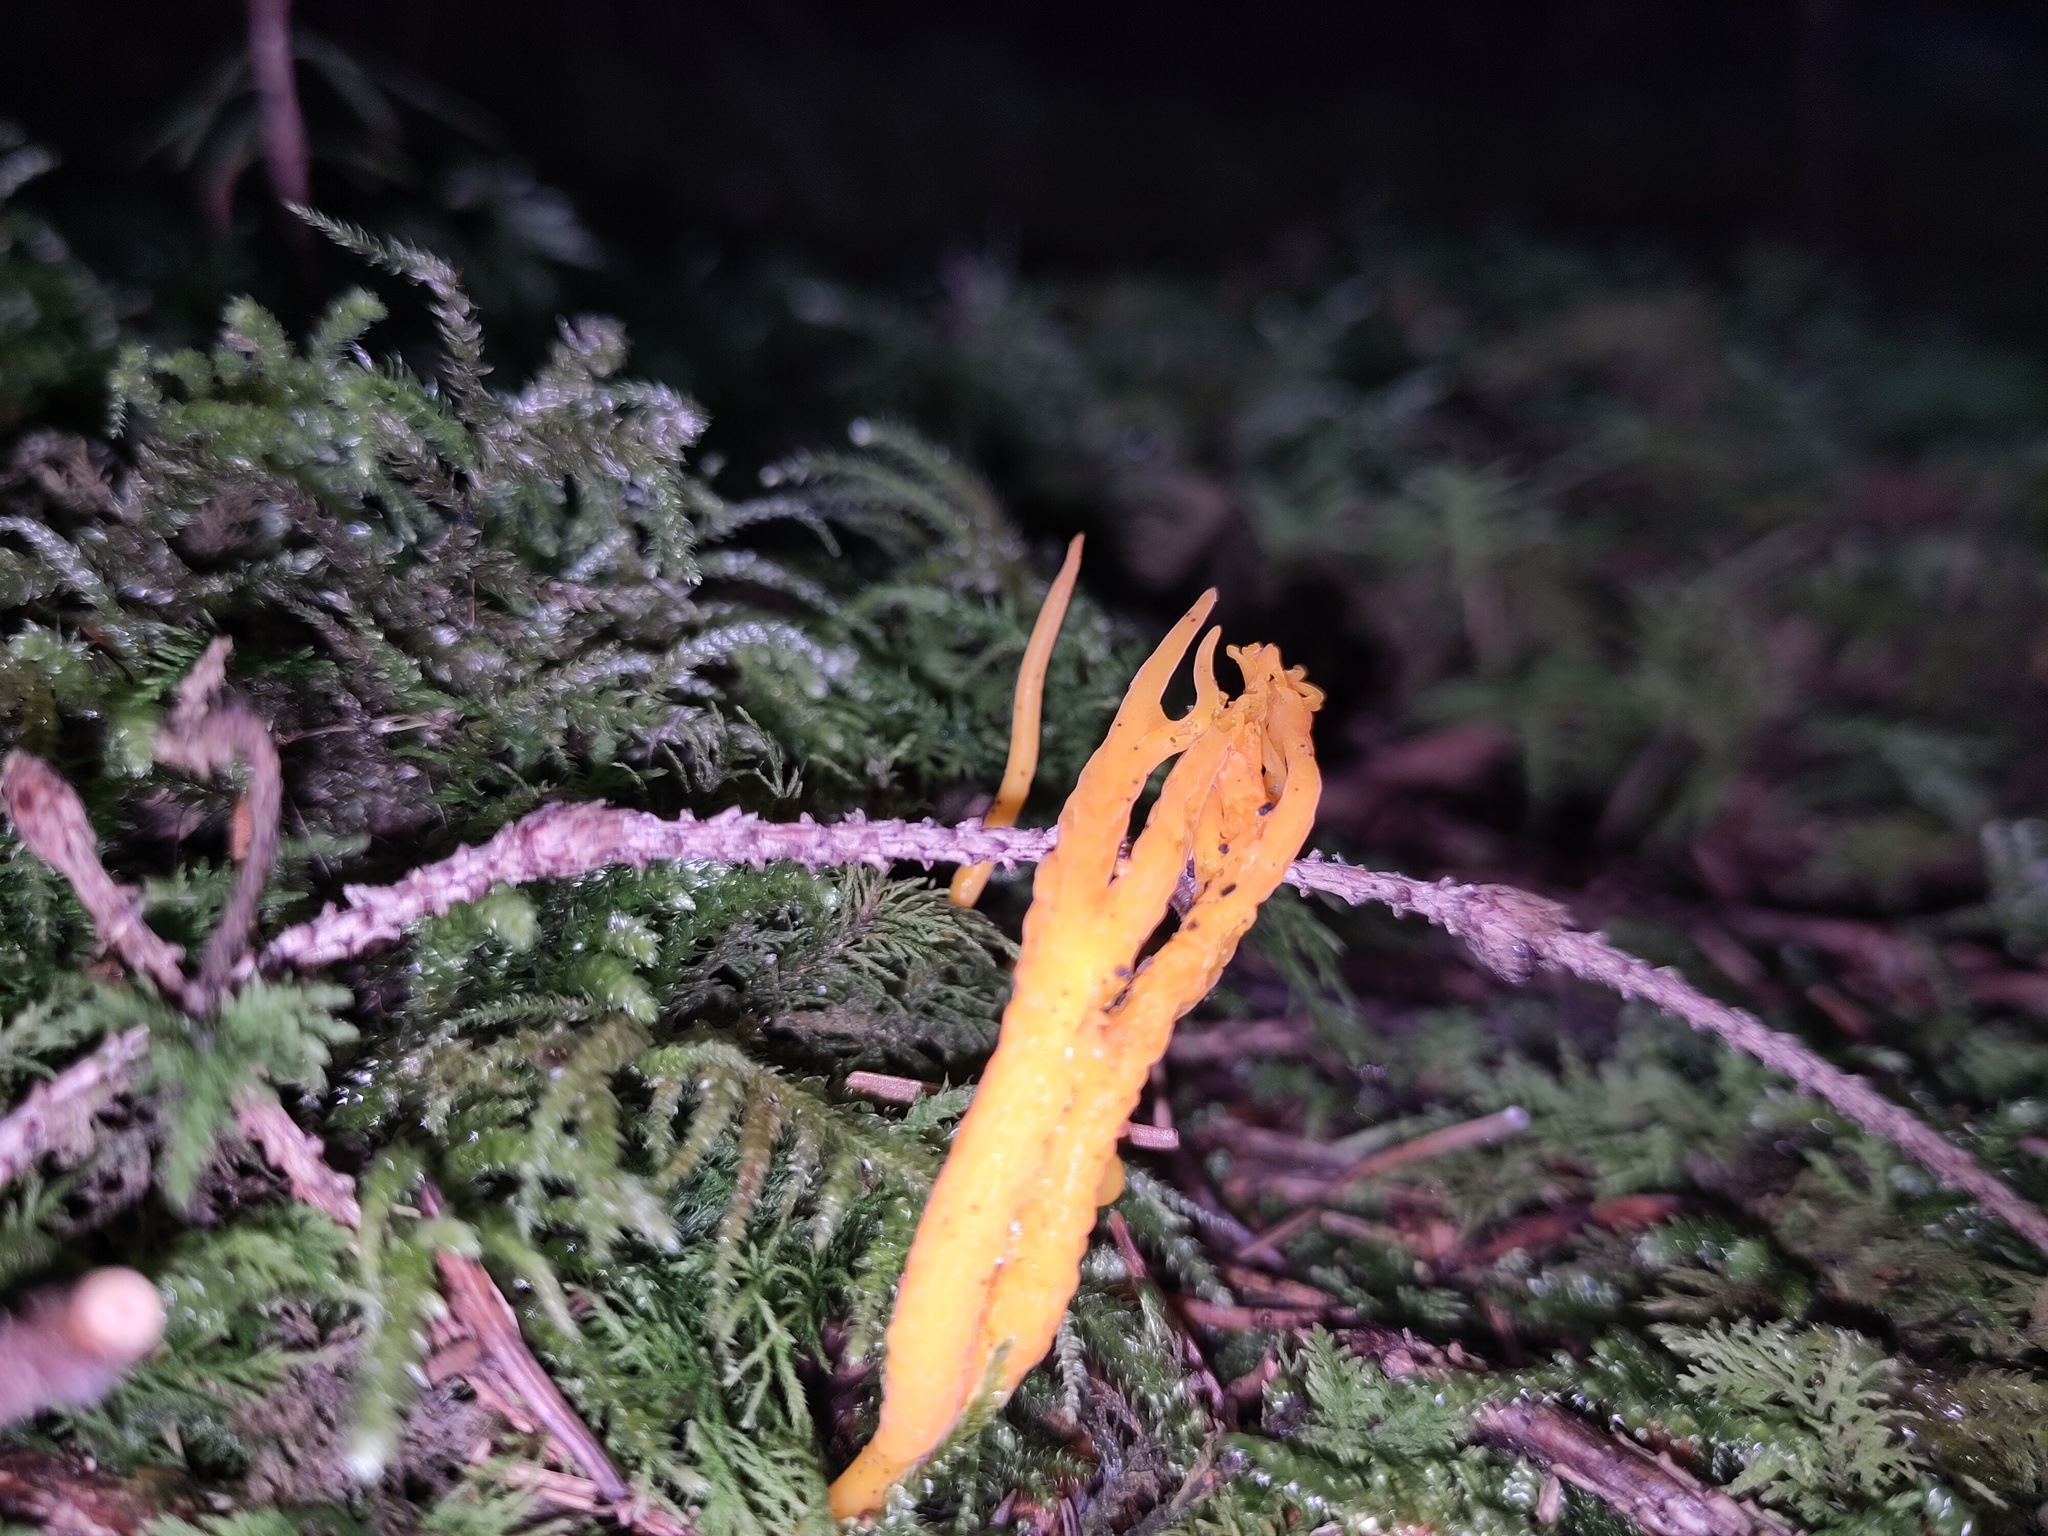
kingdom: Fungi
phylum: Basidiomycota
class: Dacrymycetes
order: Dacrymycetales
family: Dacrymycetaceae
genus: Calocera
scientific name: Calocera viscosa
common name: Yellow stagshorn
